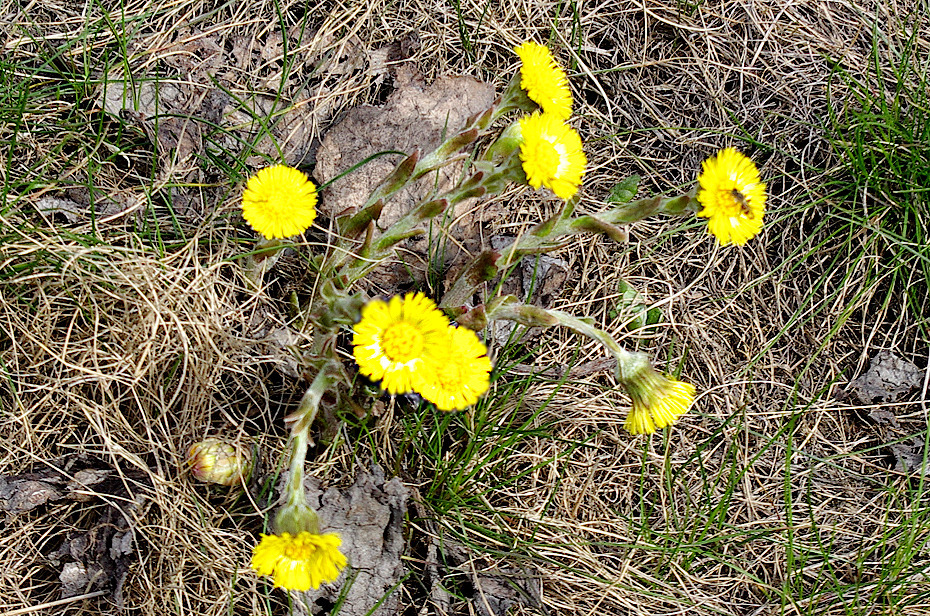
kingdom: Plantae
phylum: Tracheophyta
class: Magnoliopsida
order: Asterales
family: Asteraceae
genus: Tussilago
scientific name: Tussilago farfara
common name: Coltsfoot
